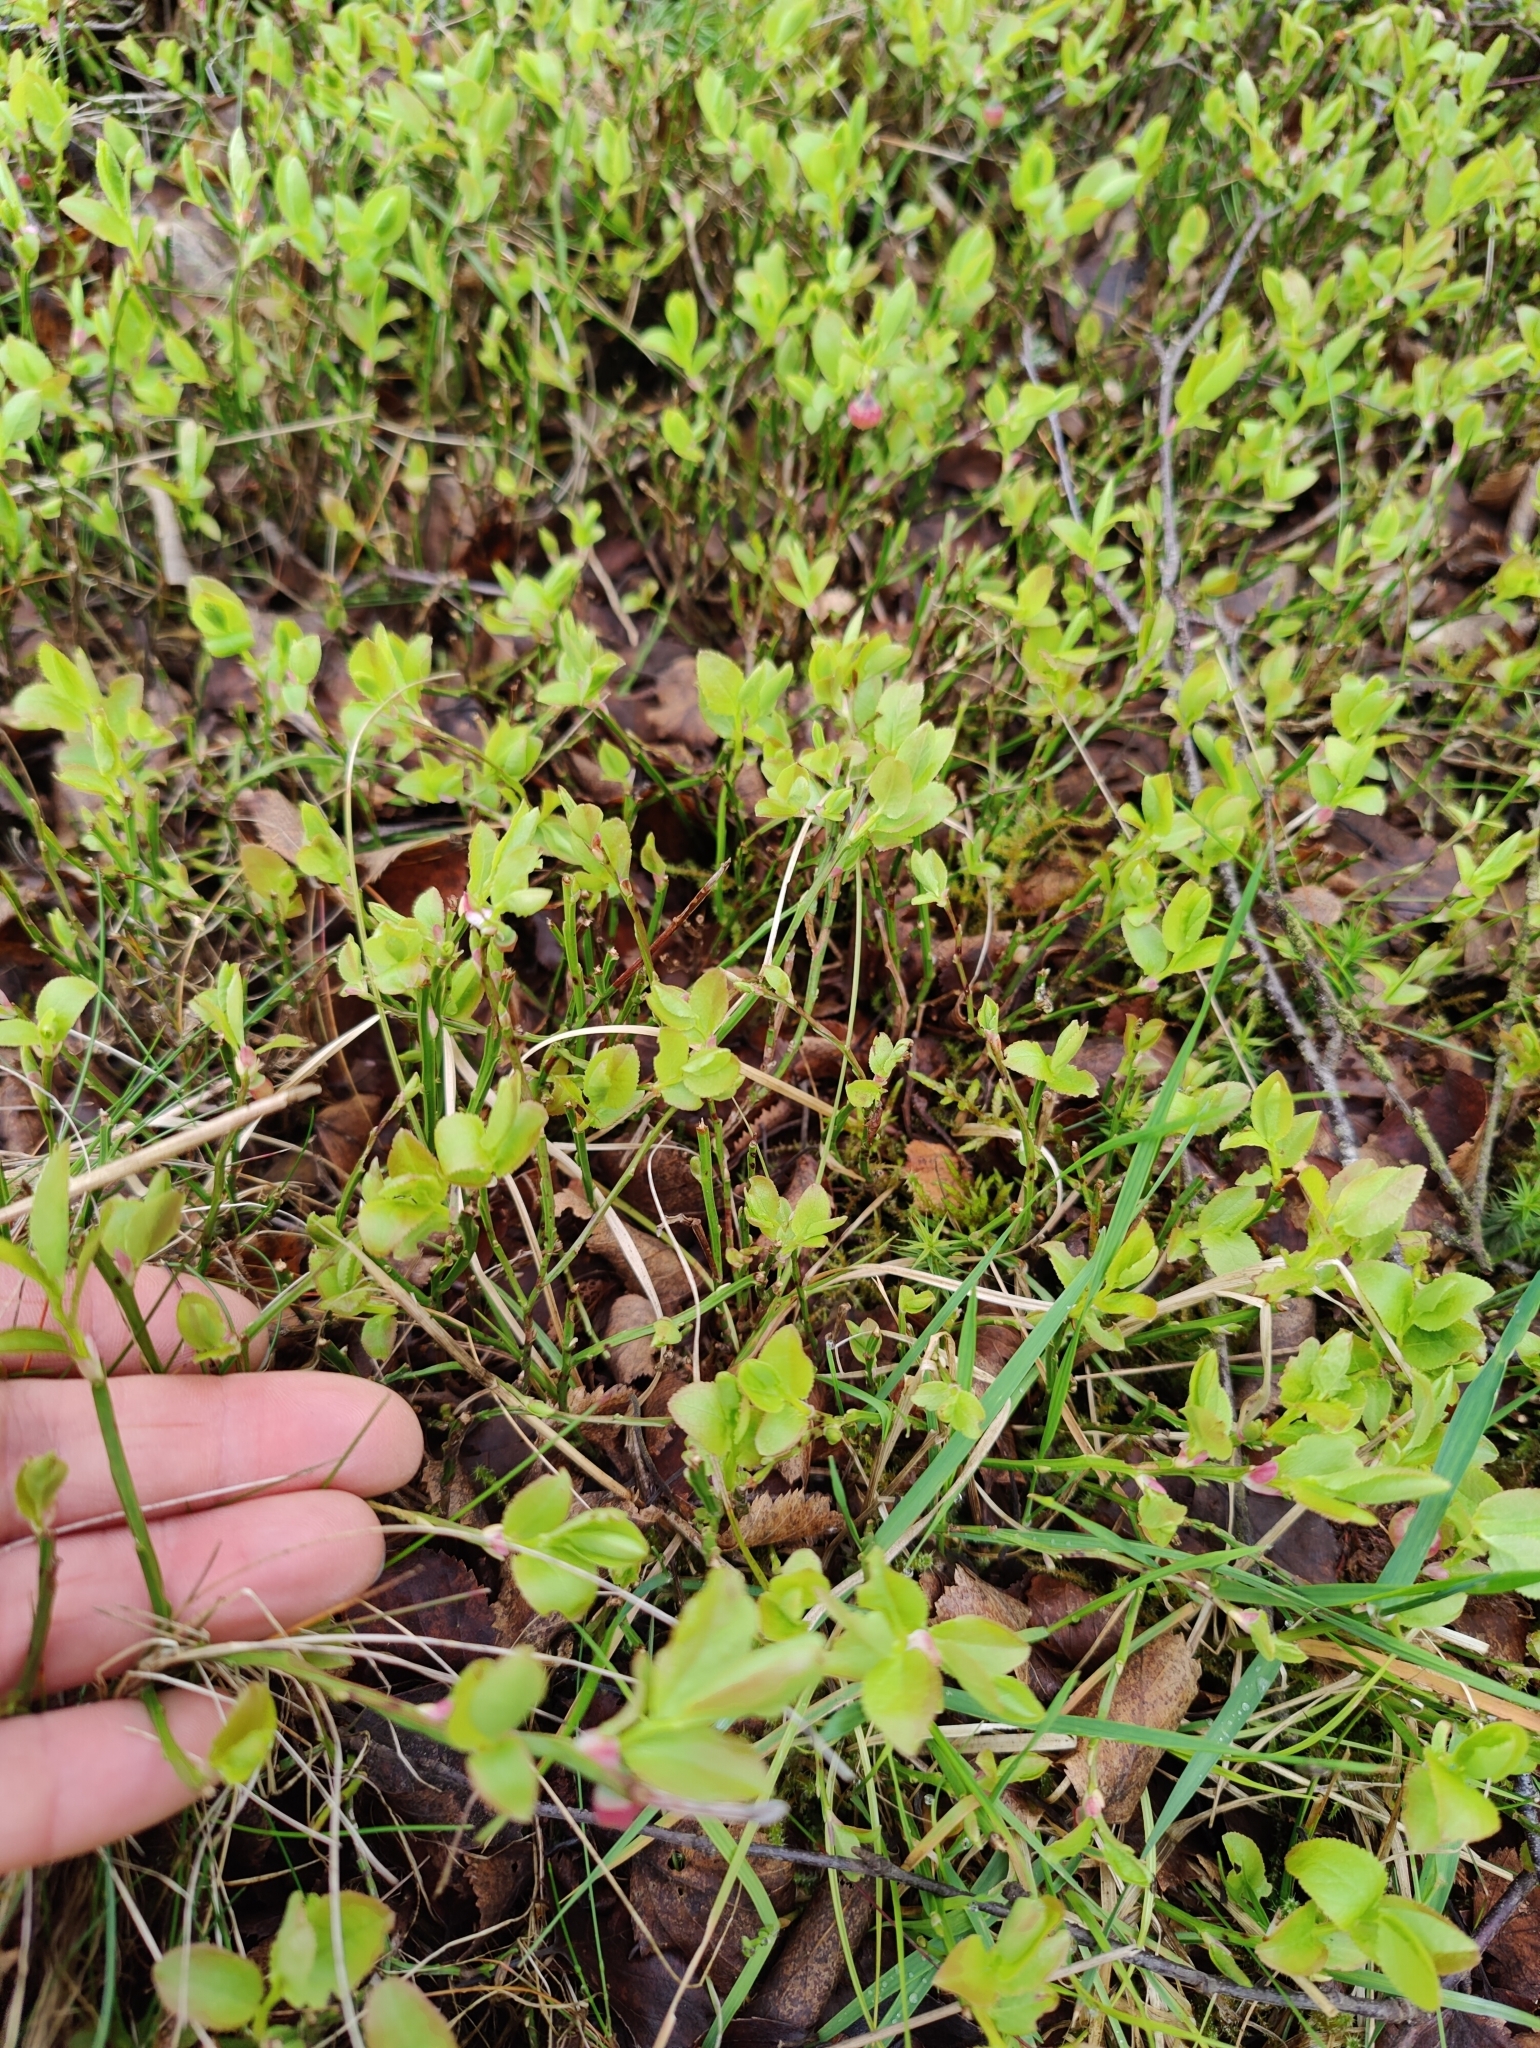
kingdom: Plantae
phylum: Tracheophyta
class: Magnoliopsida
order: Ericales
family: Ericaceae
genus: Vaccinium
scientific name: Vaccinium myrtillus
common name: Bilberry
